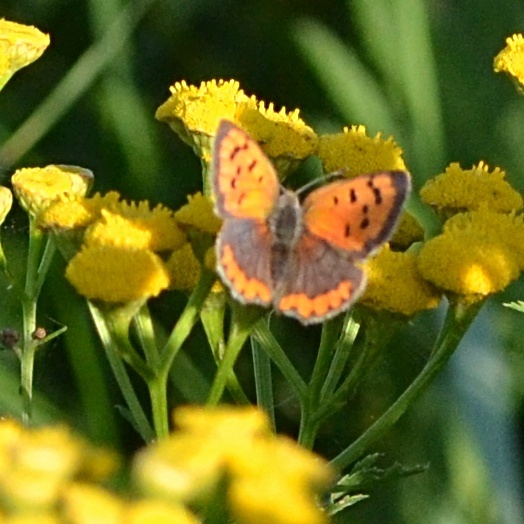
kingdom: Animalia
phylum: Arthropoda
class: Insecta
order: Lepidoptera
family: Lycaenidae
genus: Lycaena
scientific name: Lycaena phlaeas
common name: Small copper
